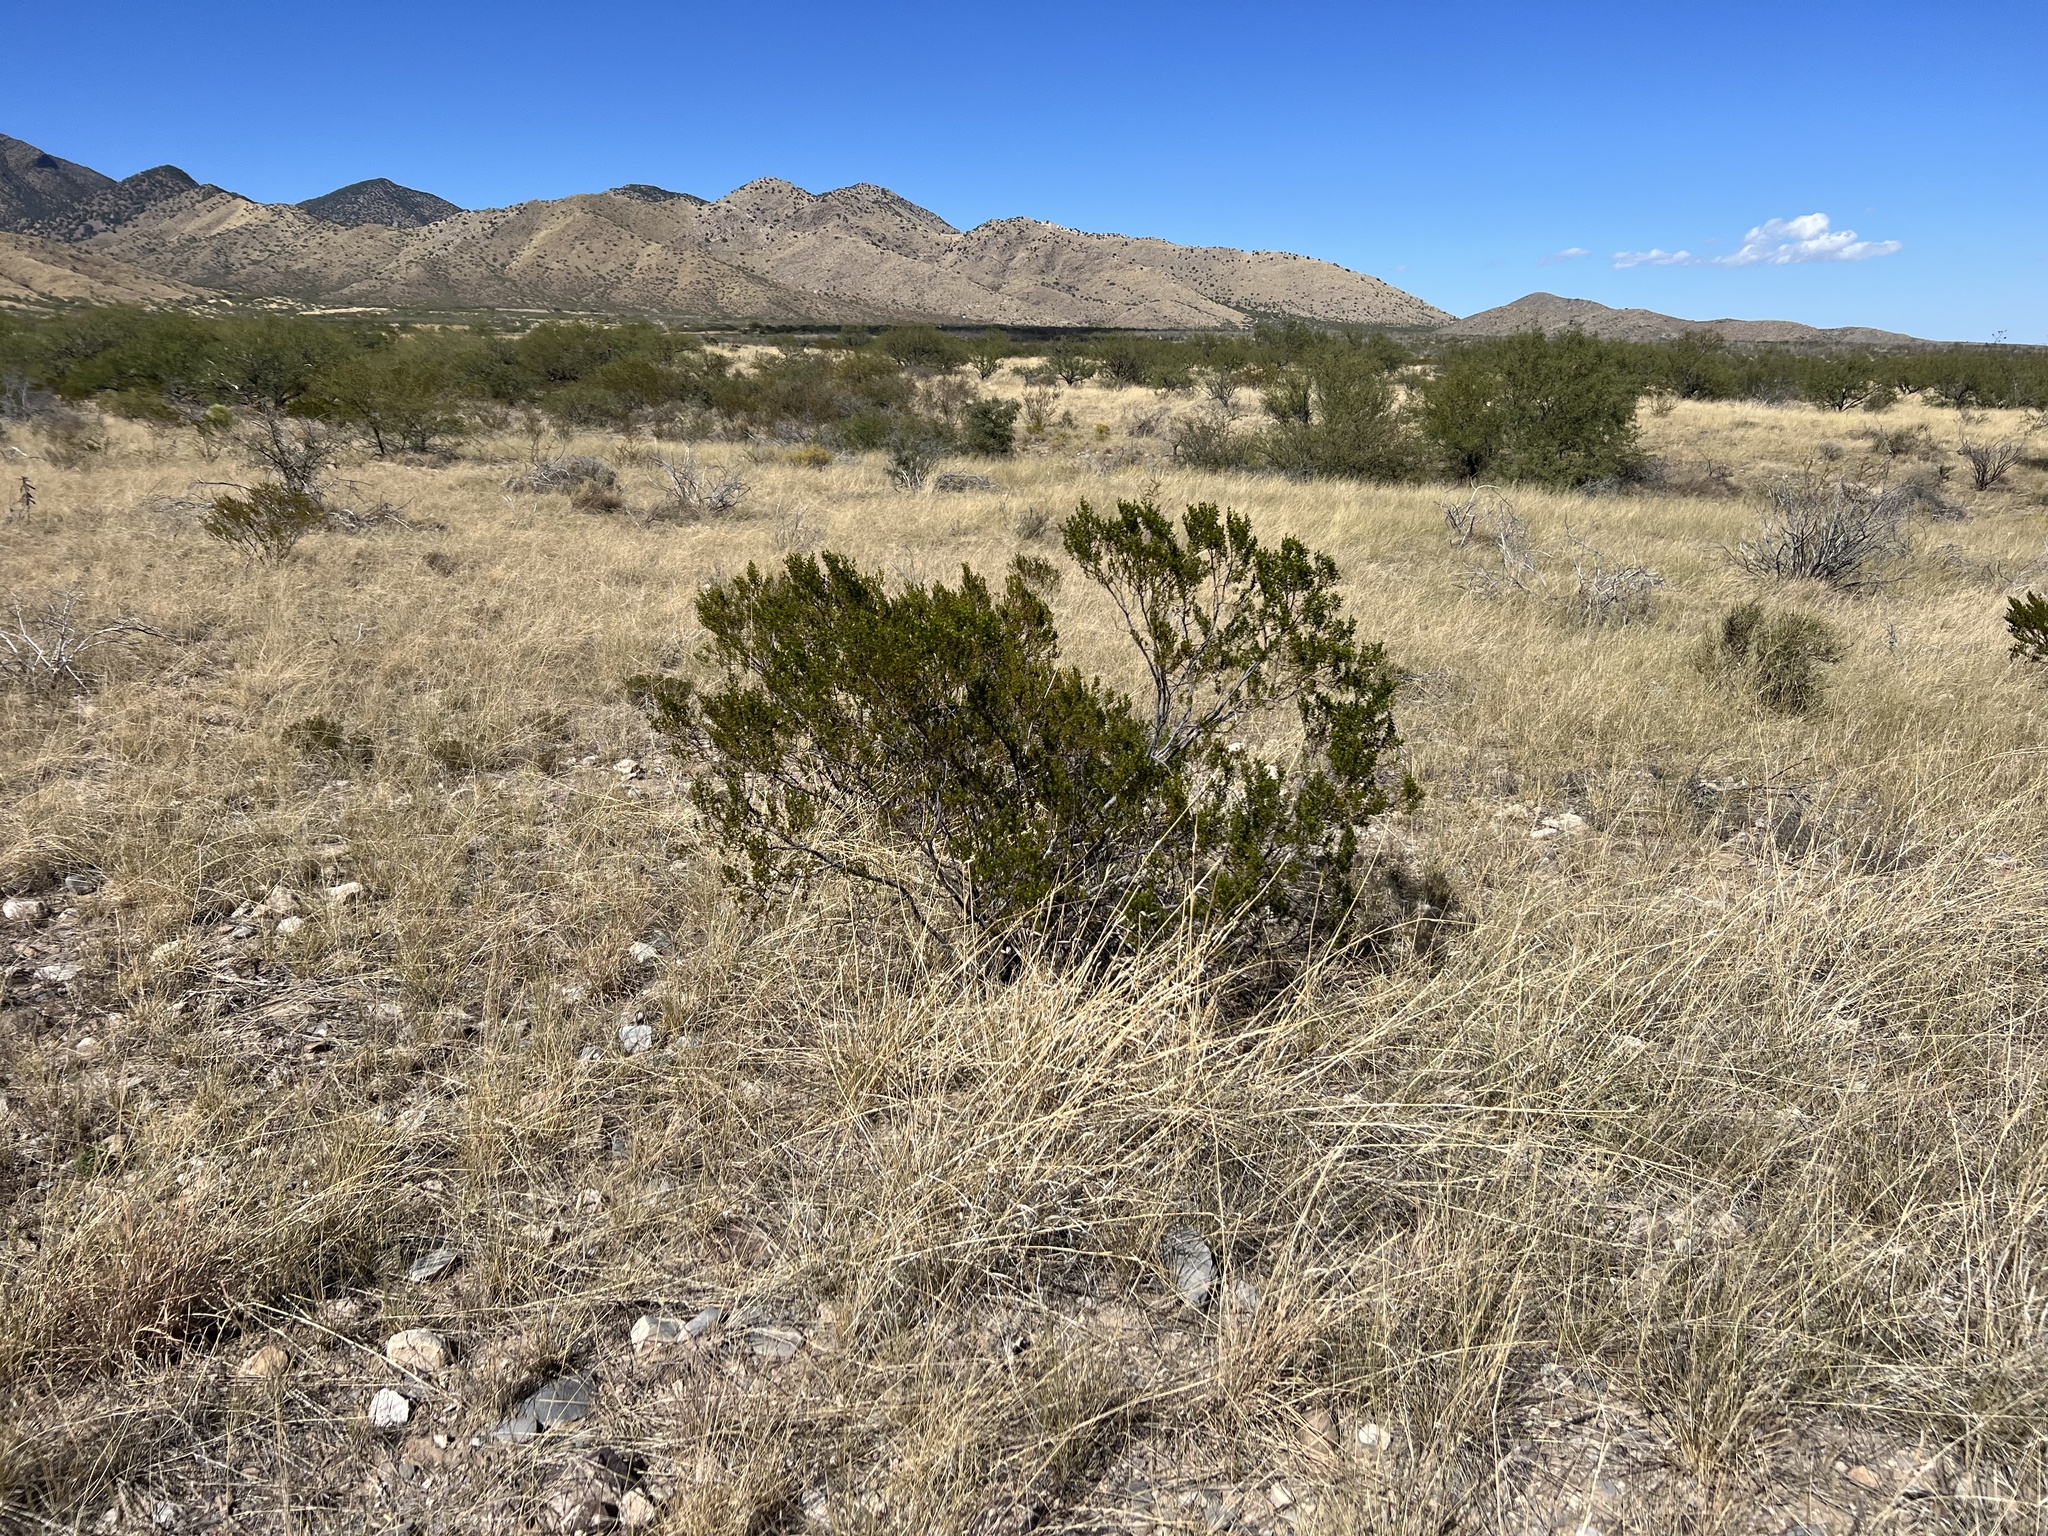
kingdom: Plantae
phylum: Tracheophyta
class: Magnoliopsida
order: Zygophyllales
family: Zygophyllaceae
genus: Larrea
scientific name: Larrea tridentata
